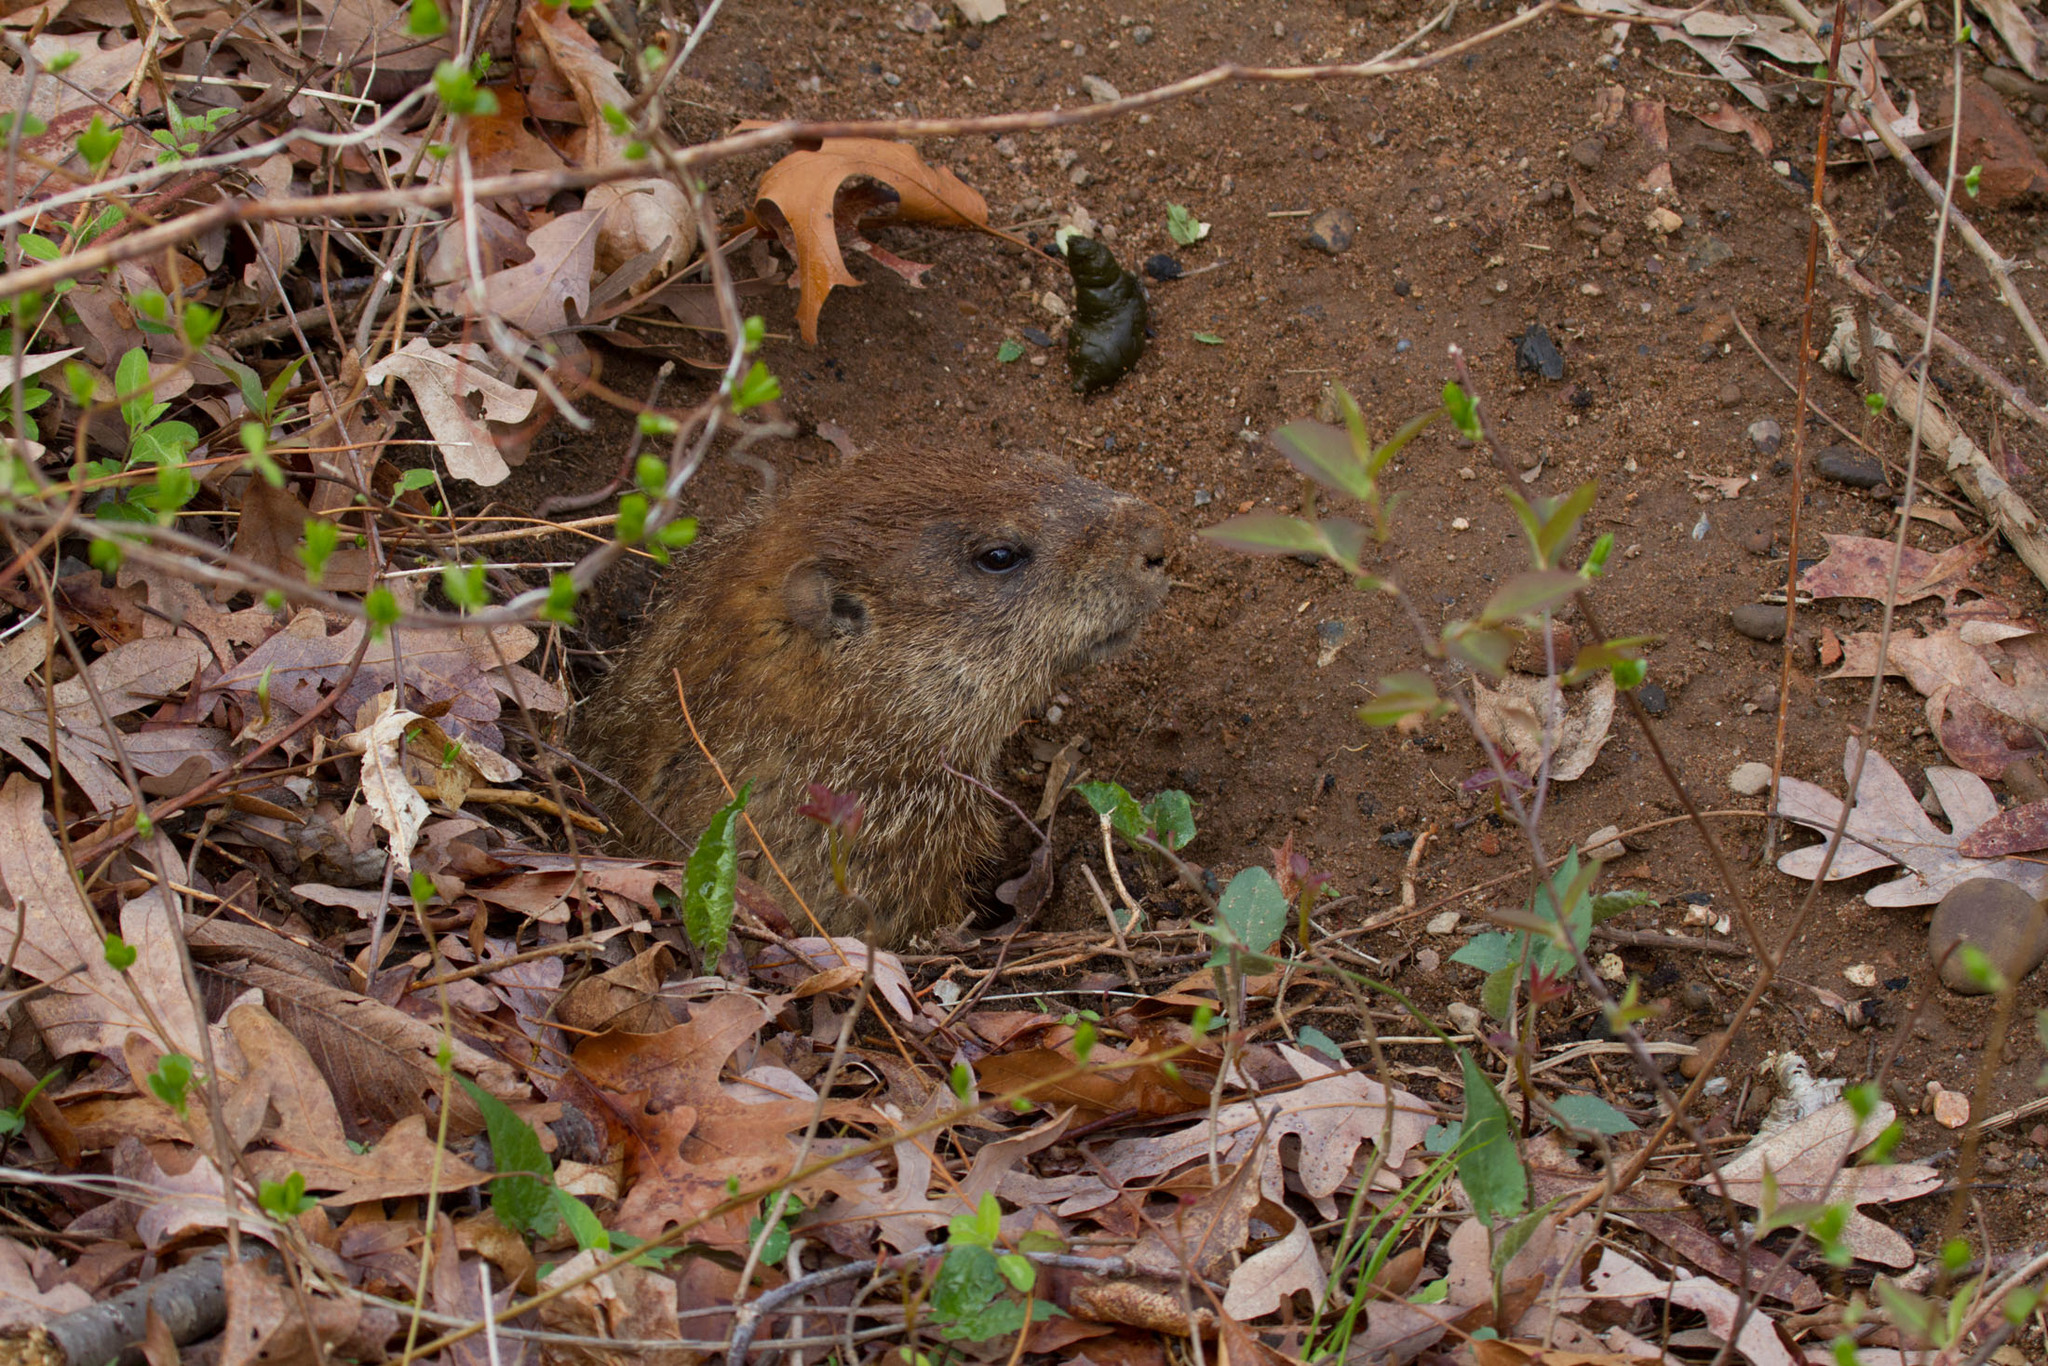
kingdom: Animalia
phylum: Chordata
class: Mammalia
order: Rodentia
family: Sciuridae
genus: Marmota
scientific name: Marmota monax
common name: Groundhog
